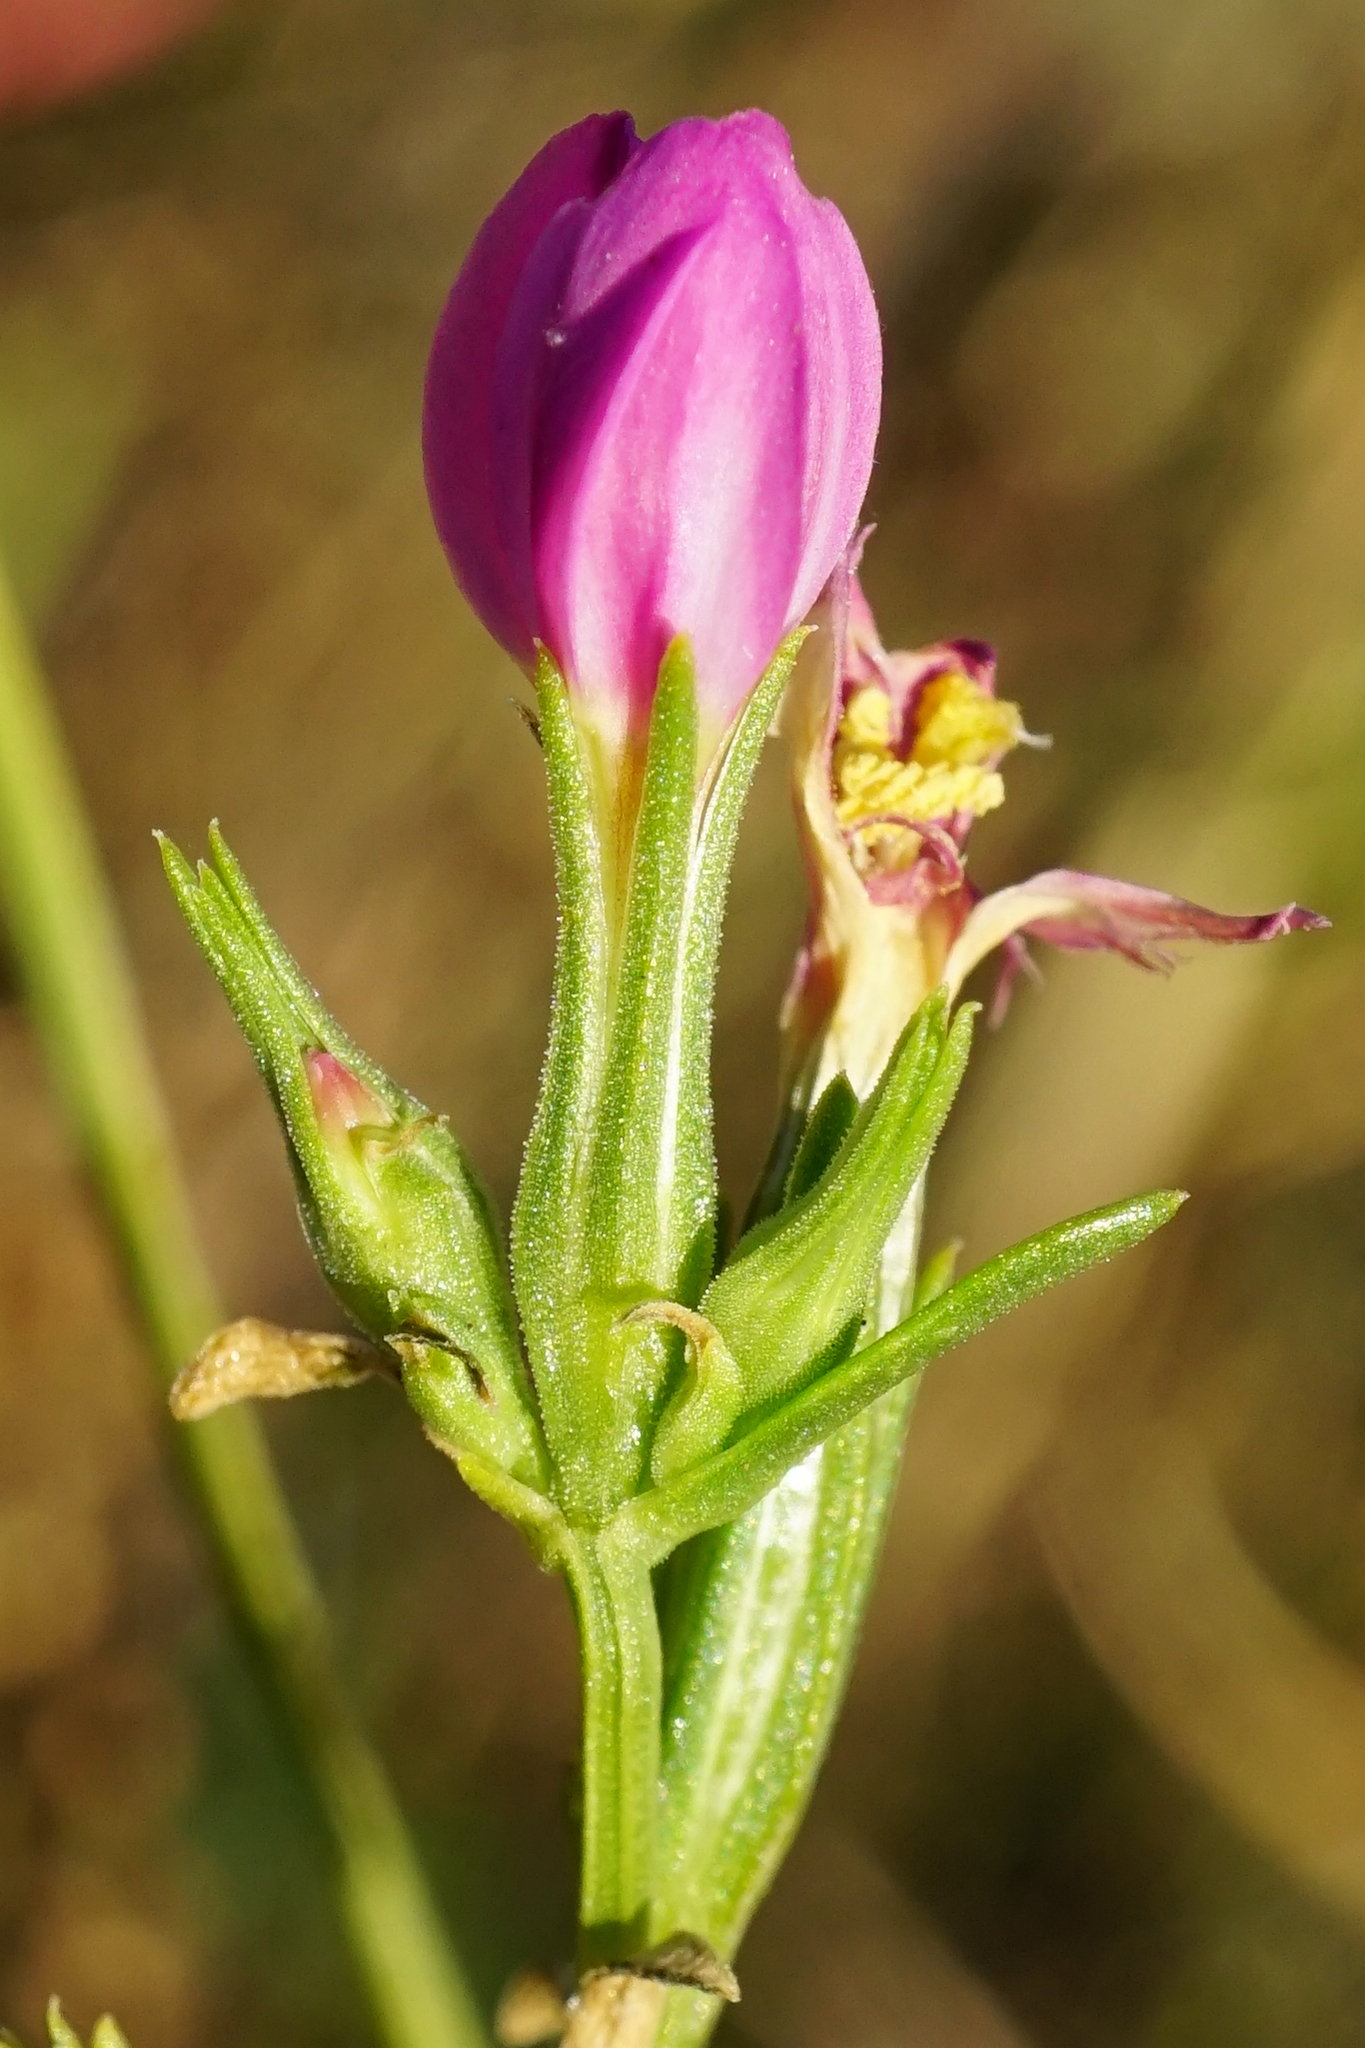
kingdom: Plantae
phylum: Tracheophyta
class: Magnoliopsida
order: Gentianales
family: Gentianaceae
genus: Centaurium
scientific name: Centaurium littorale
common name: Seaside centaury
